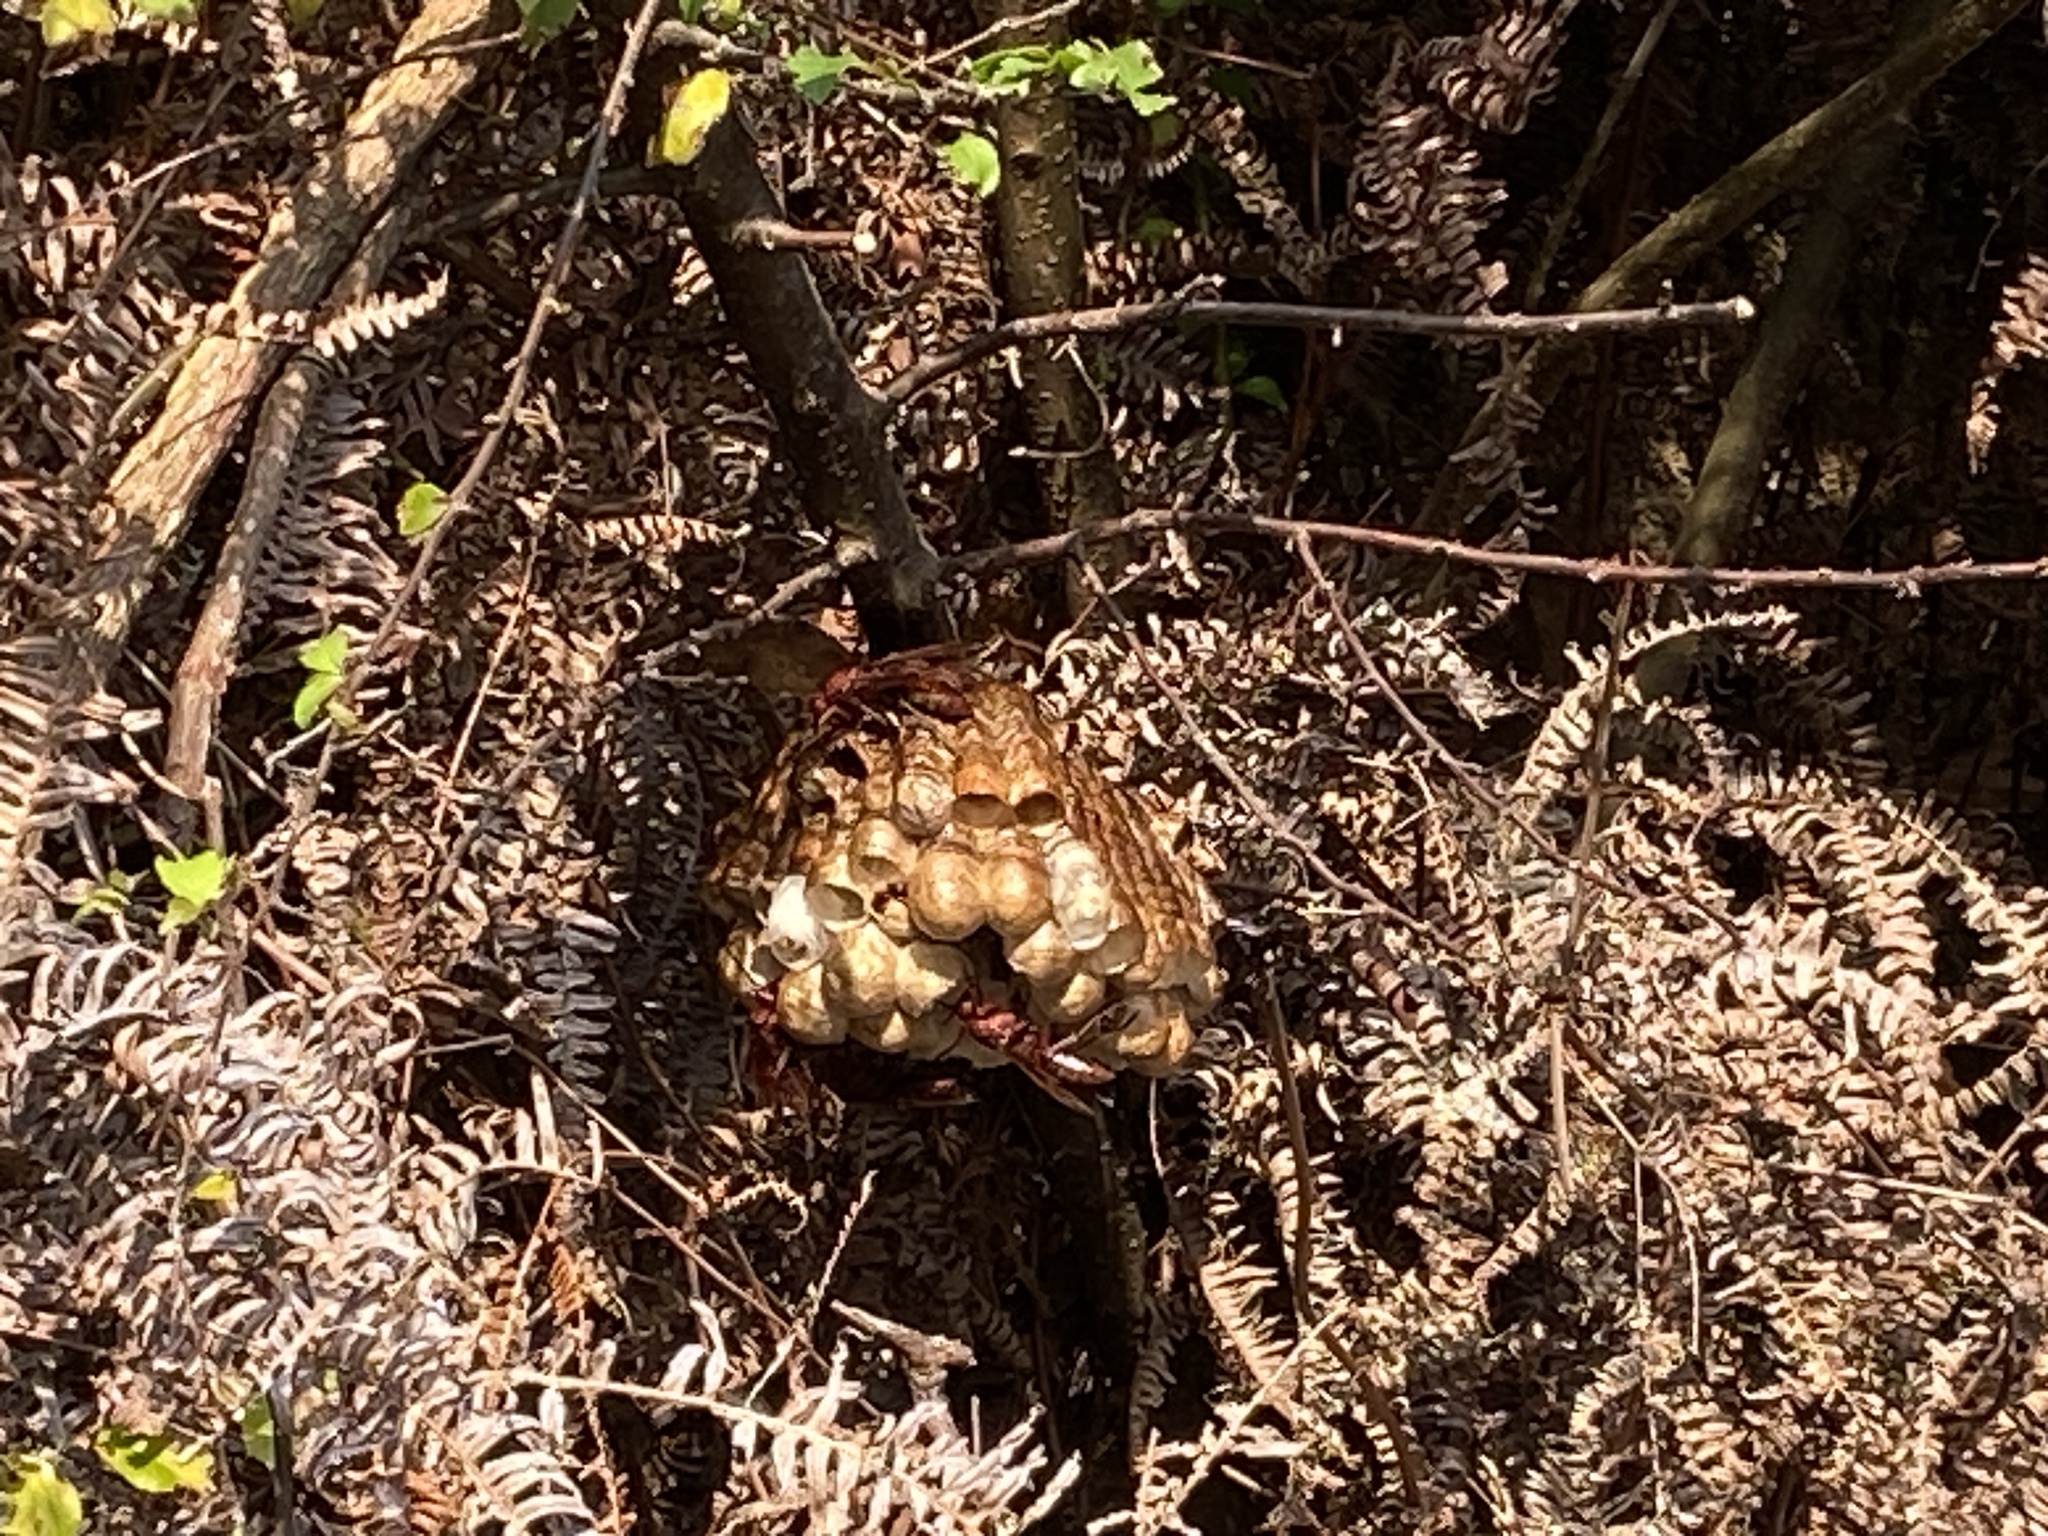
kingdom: Animalia
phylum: Arthropoda
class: Insecta
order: Hymenoptera
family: Eumenidae
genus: Polistes
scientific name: Polistes gigas
